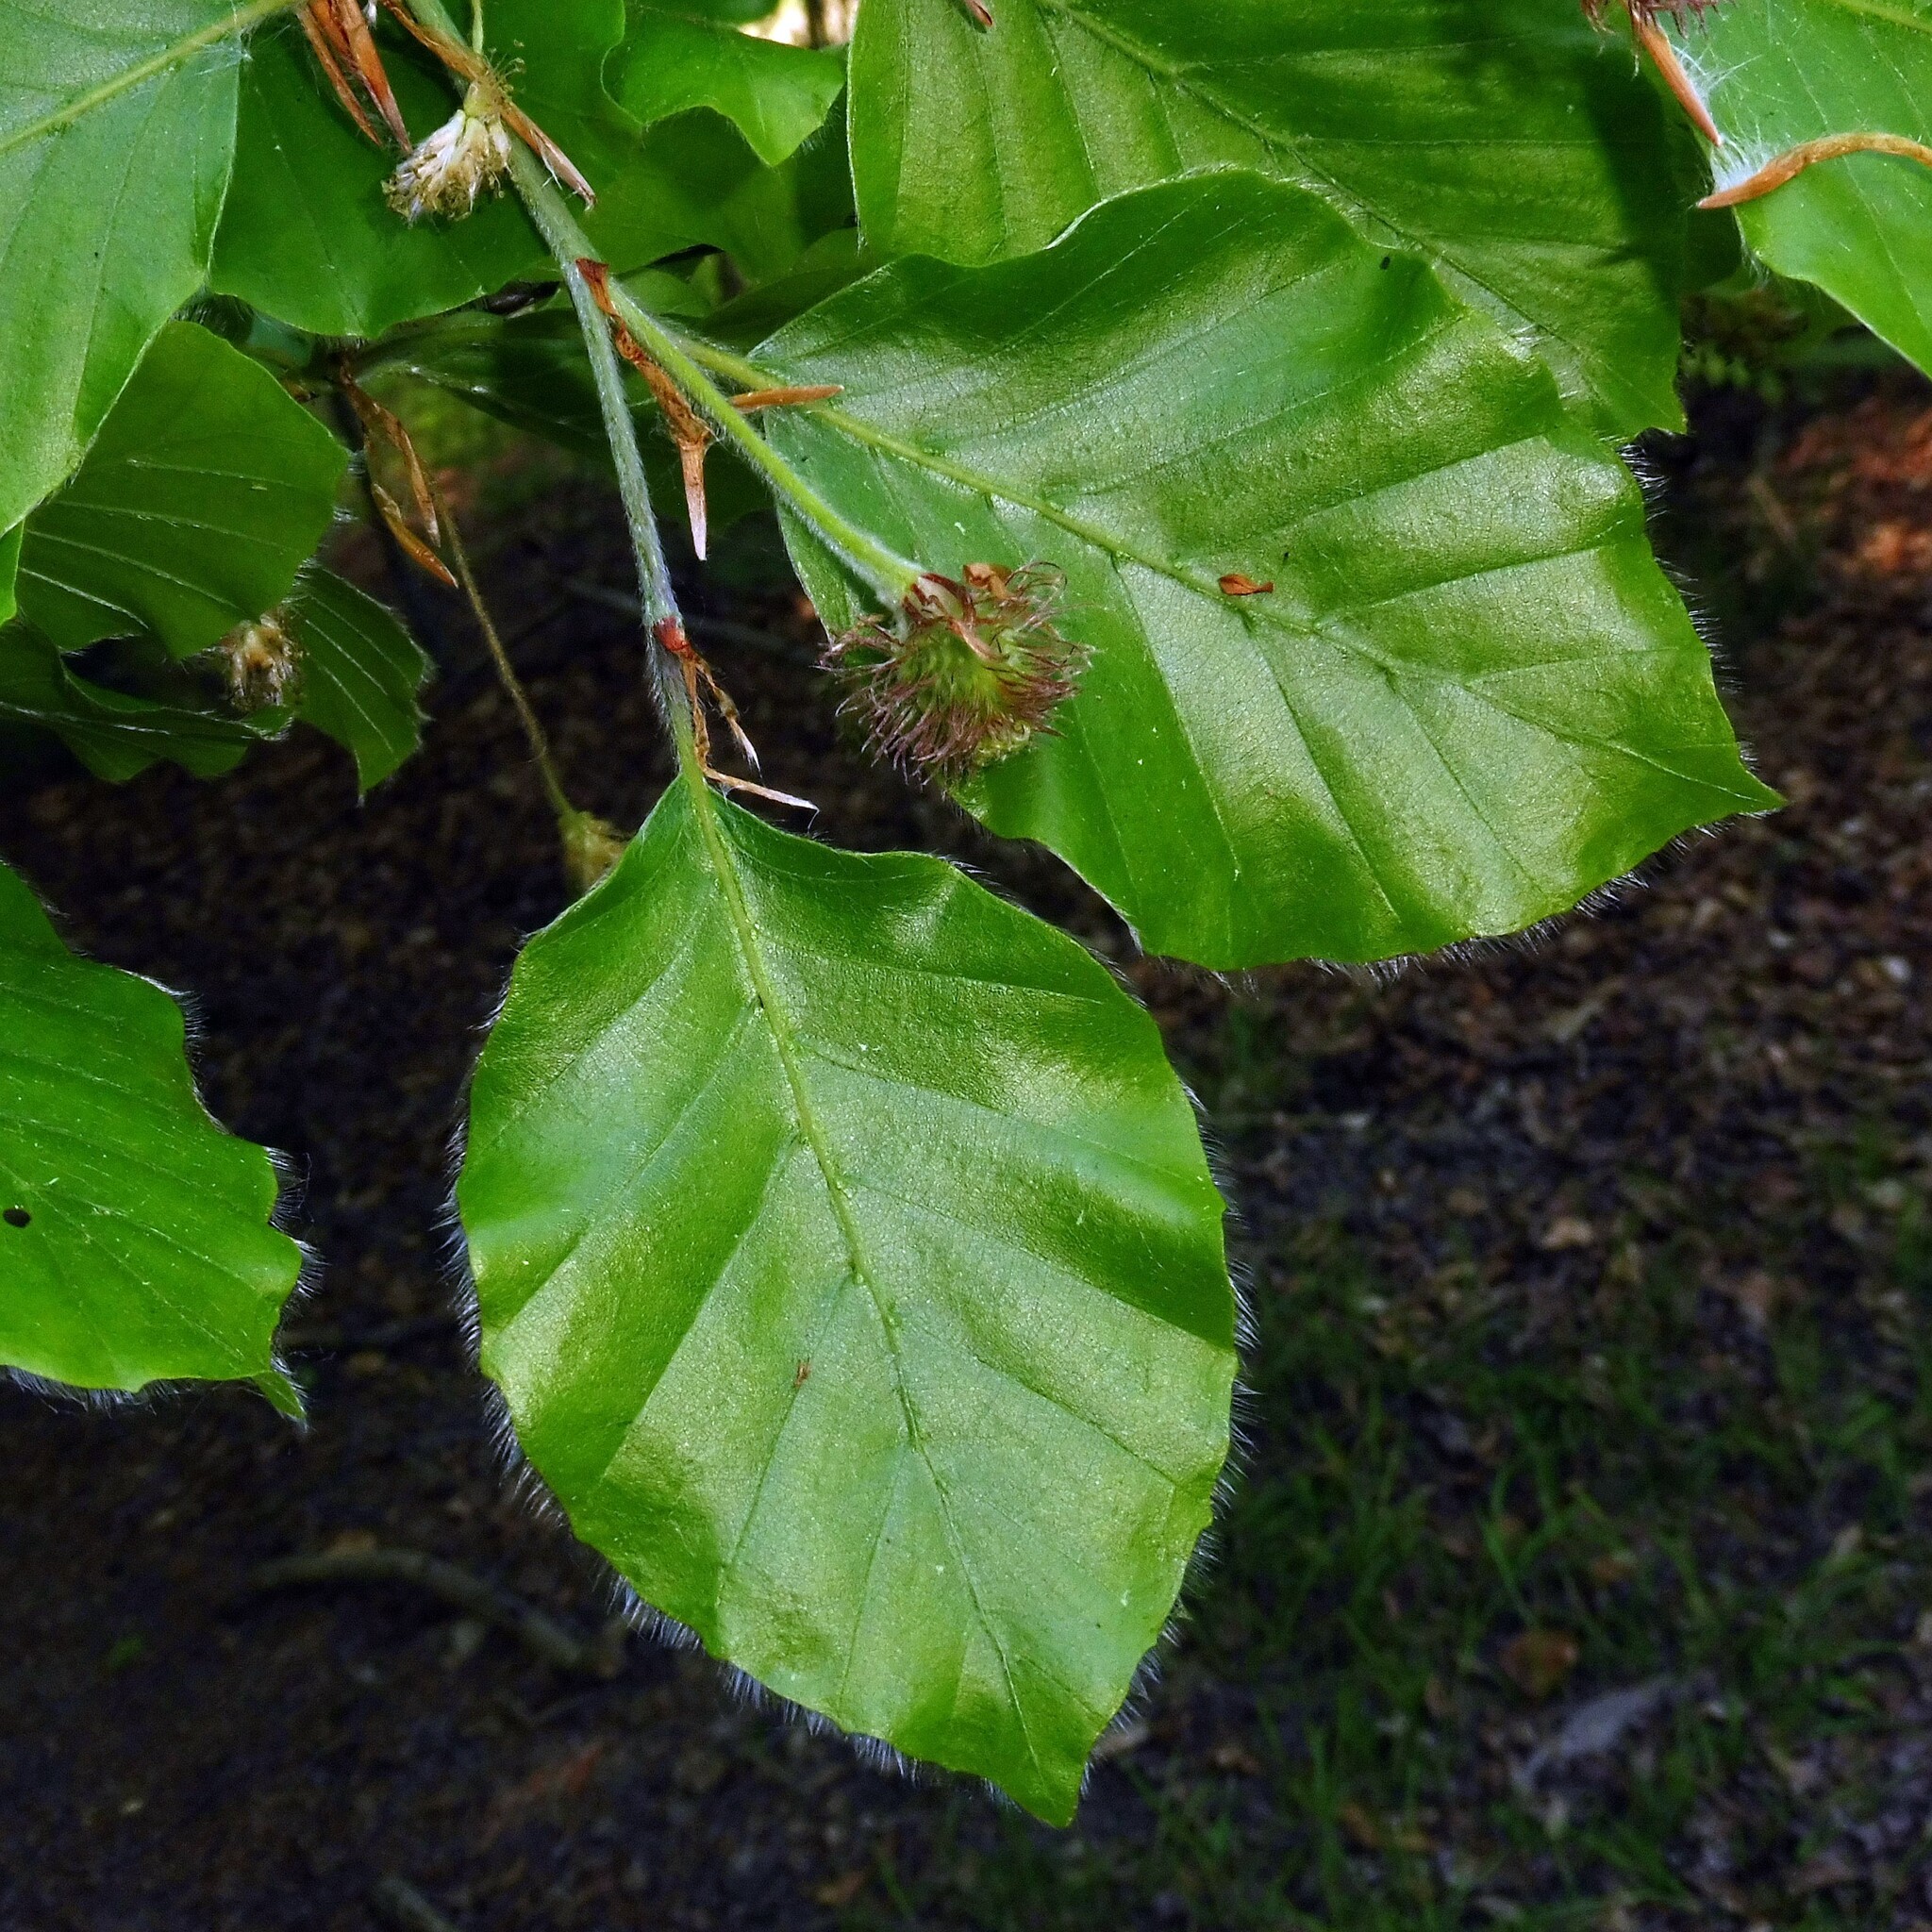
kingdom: Plantae
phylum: Tracheophyta
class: Magnoliopsida
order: Fagales
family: Fagaceae
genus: Fagus
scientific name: Fagus sylvatica
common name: Beech
